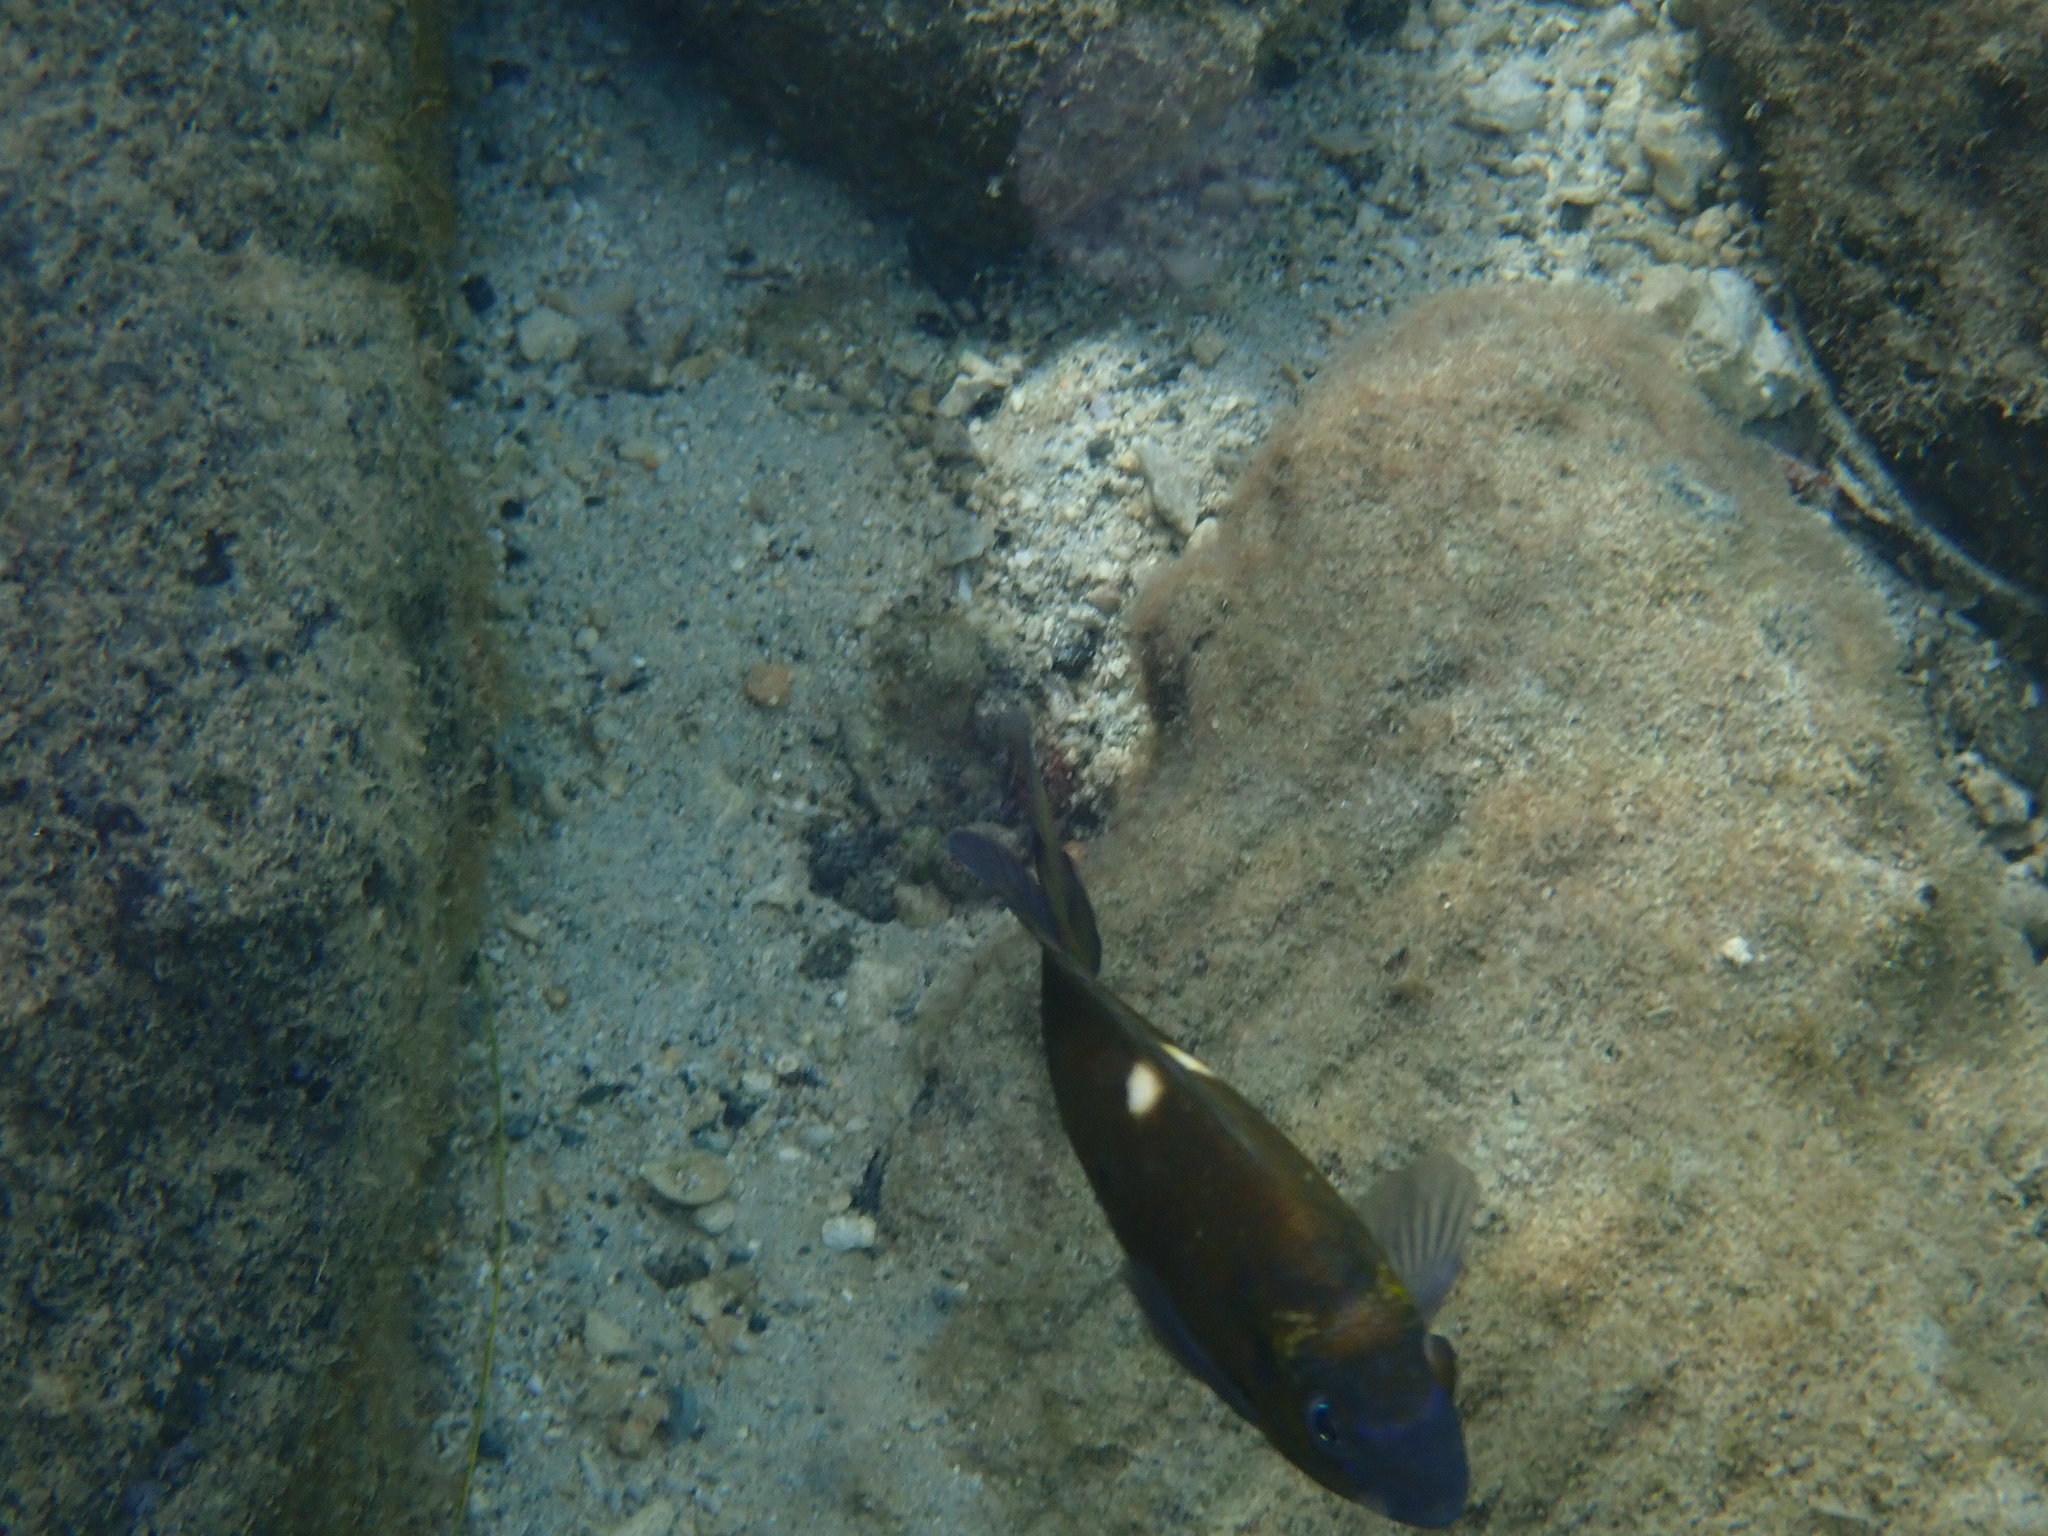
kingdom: Animalia
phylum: Chordata
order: Perciformes
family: Pomacentridae
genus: Dischistodus
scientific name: Dischistodus chrysopoecilus
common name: White-spot damsel
